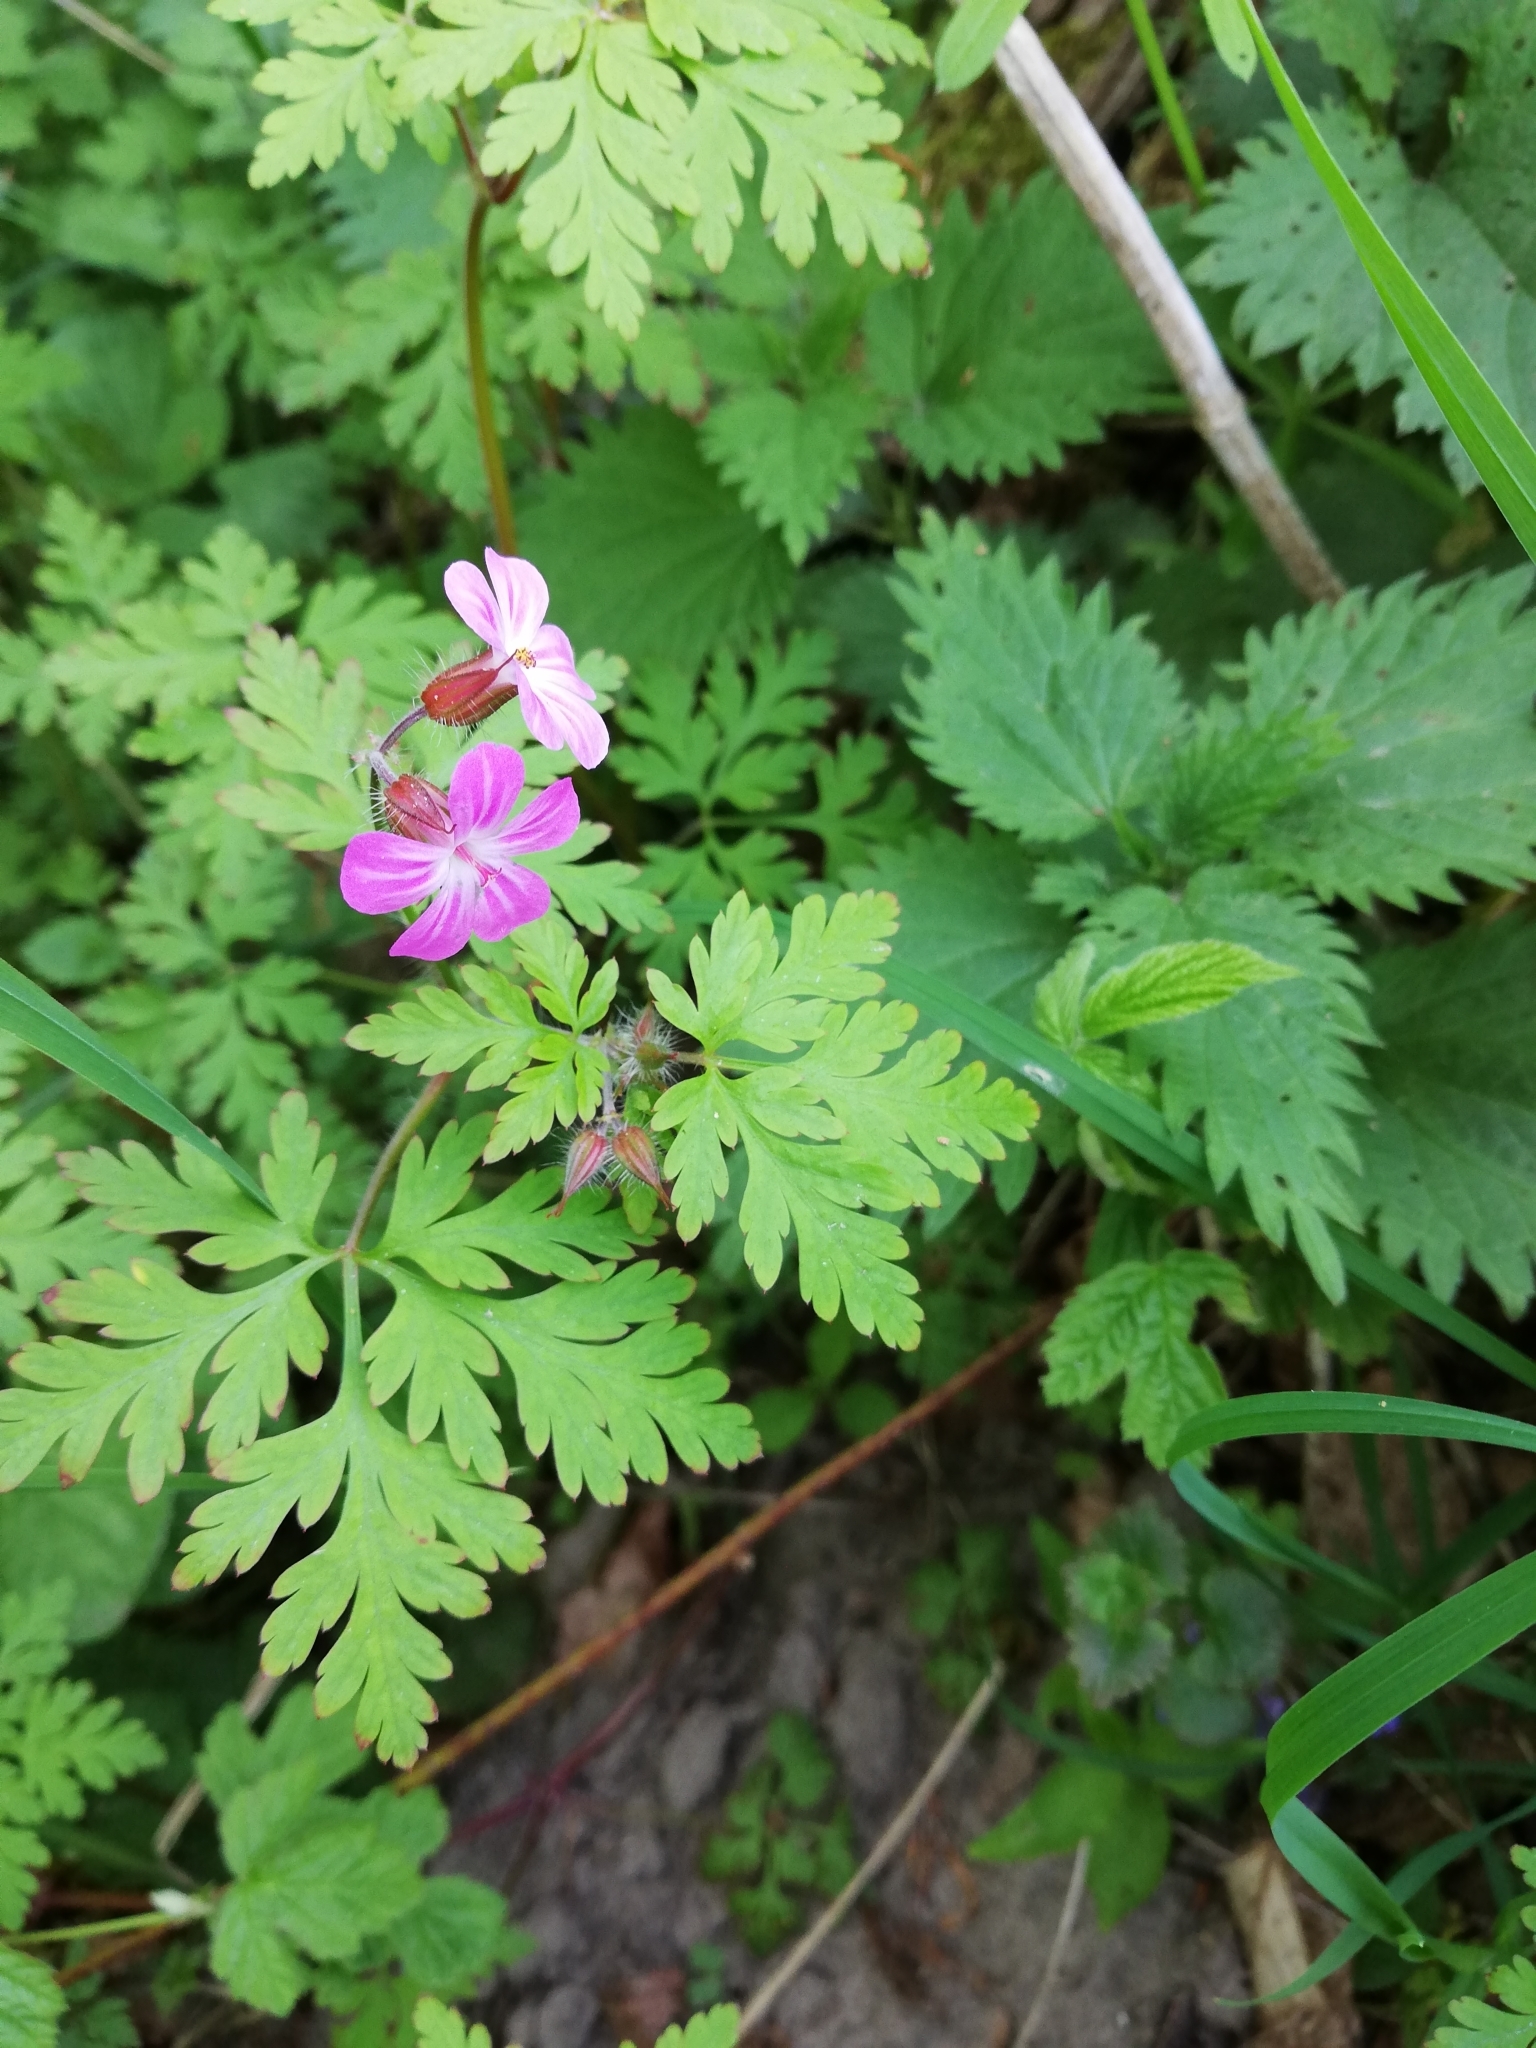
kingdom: Plantae
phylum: Tracheophyta
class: Magnoliopsida
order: Geraniales
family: Geraniaceae
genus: Geranium
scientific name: Geranium robertianum
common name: Herb-robert
